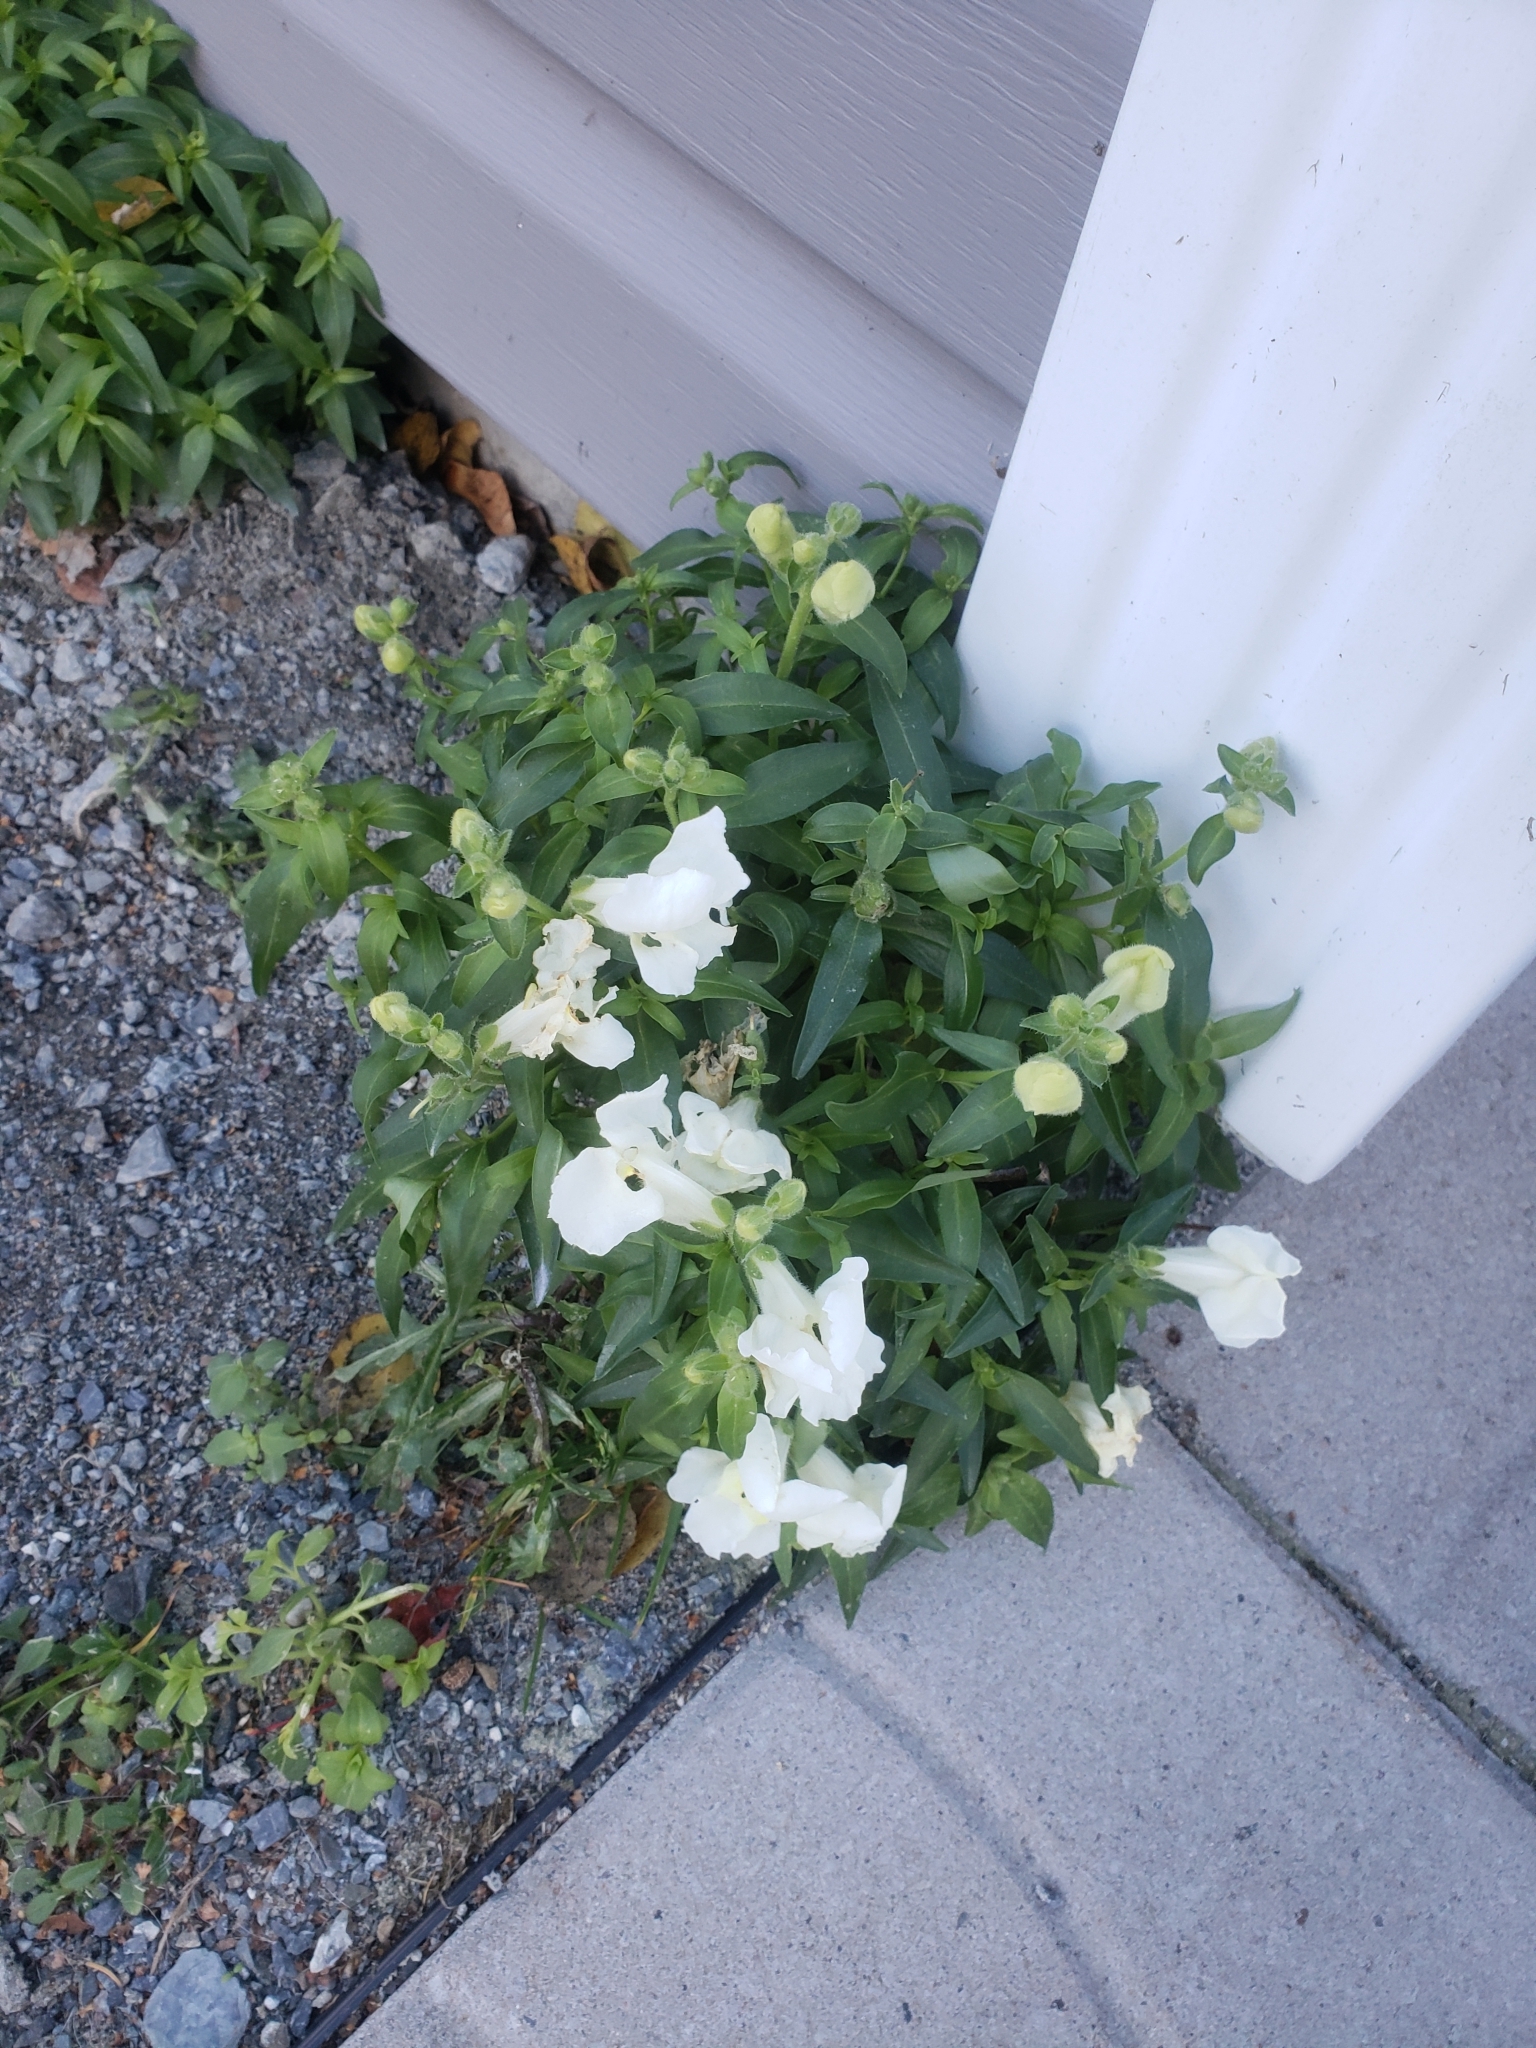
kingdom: Plantae
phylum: Tracheophyta
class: Magnoliopsida
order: Lamiales
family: Plantaginaceae
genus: Antirrhinum
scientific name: Antirrhinum majus
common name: Snapdragon
